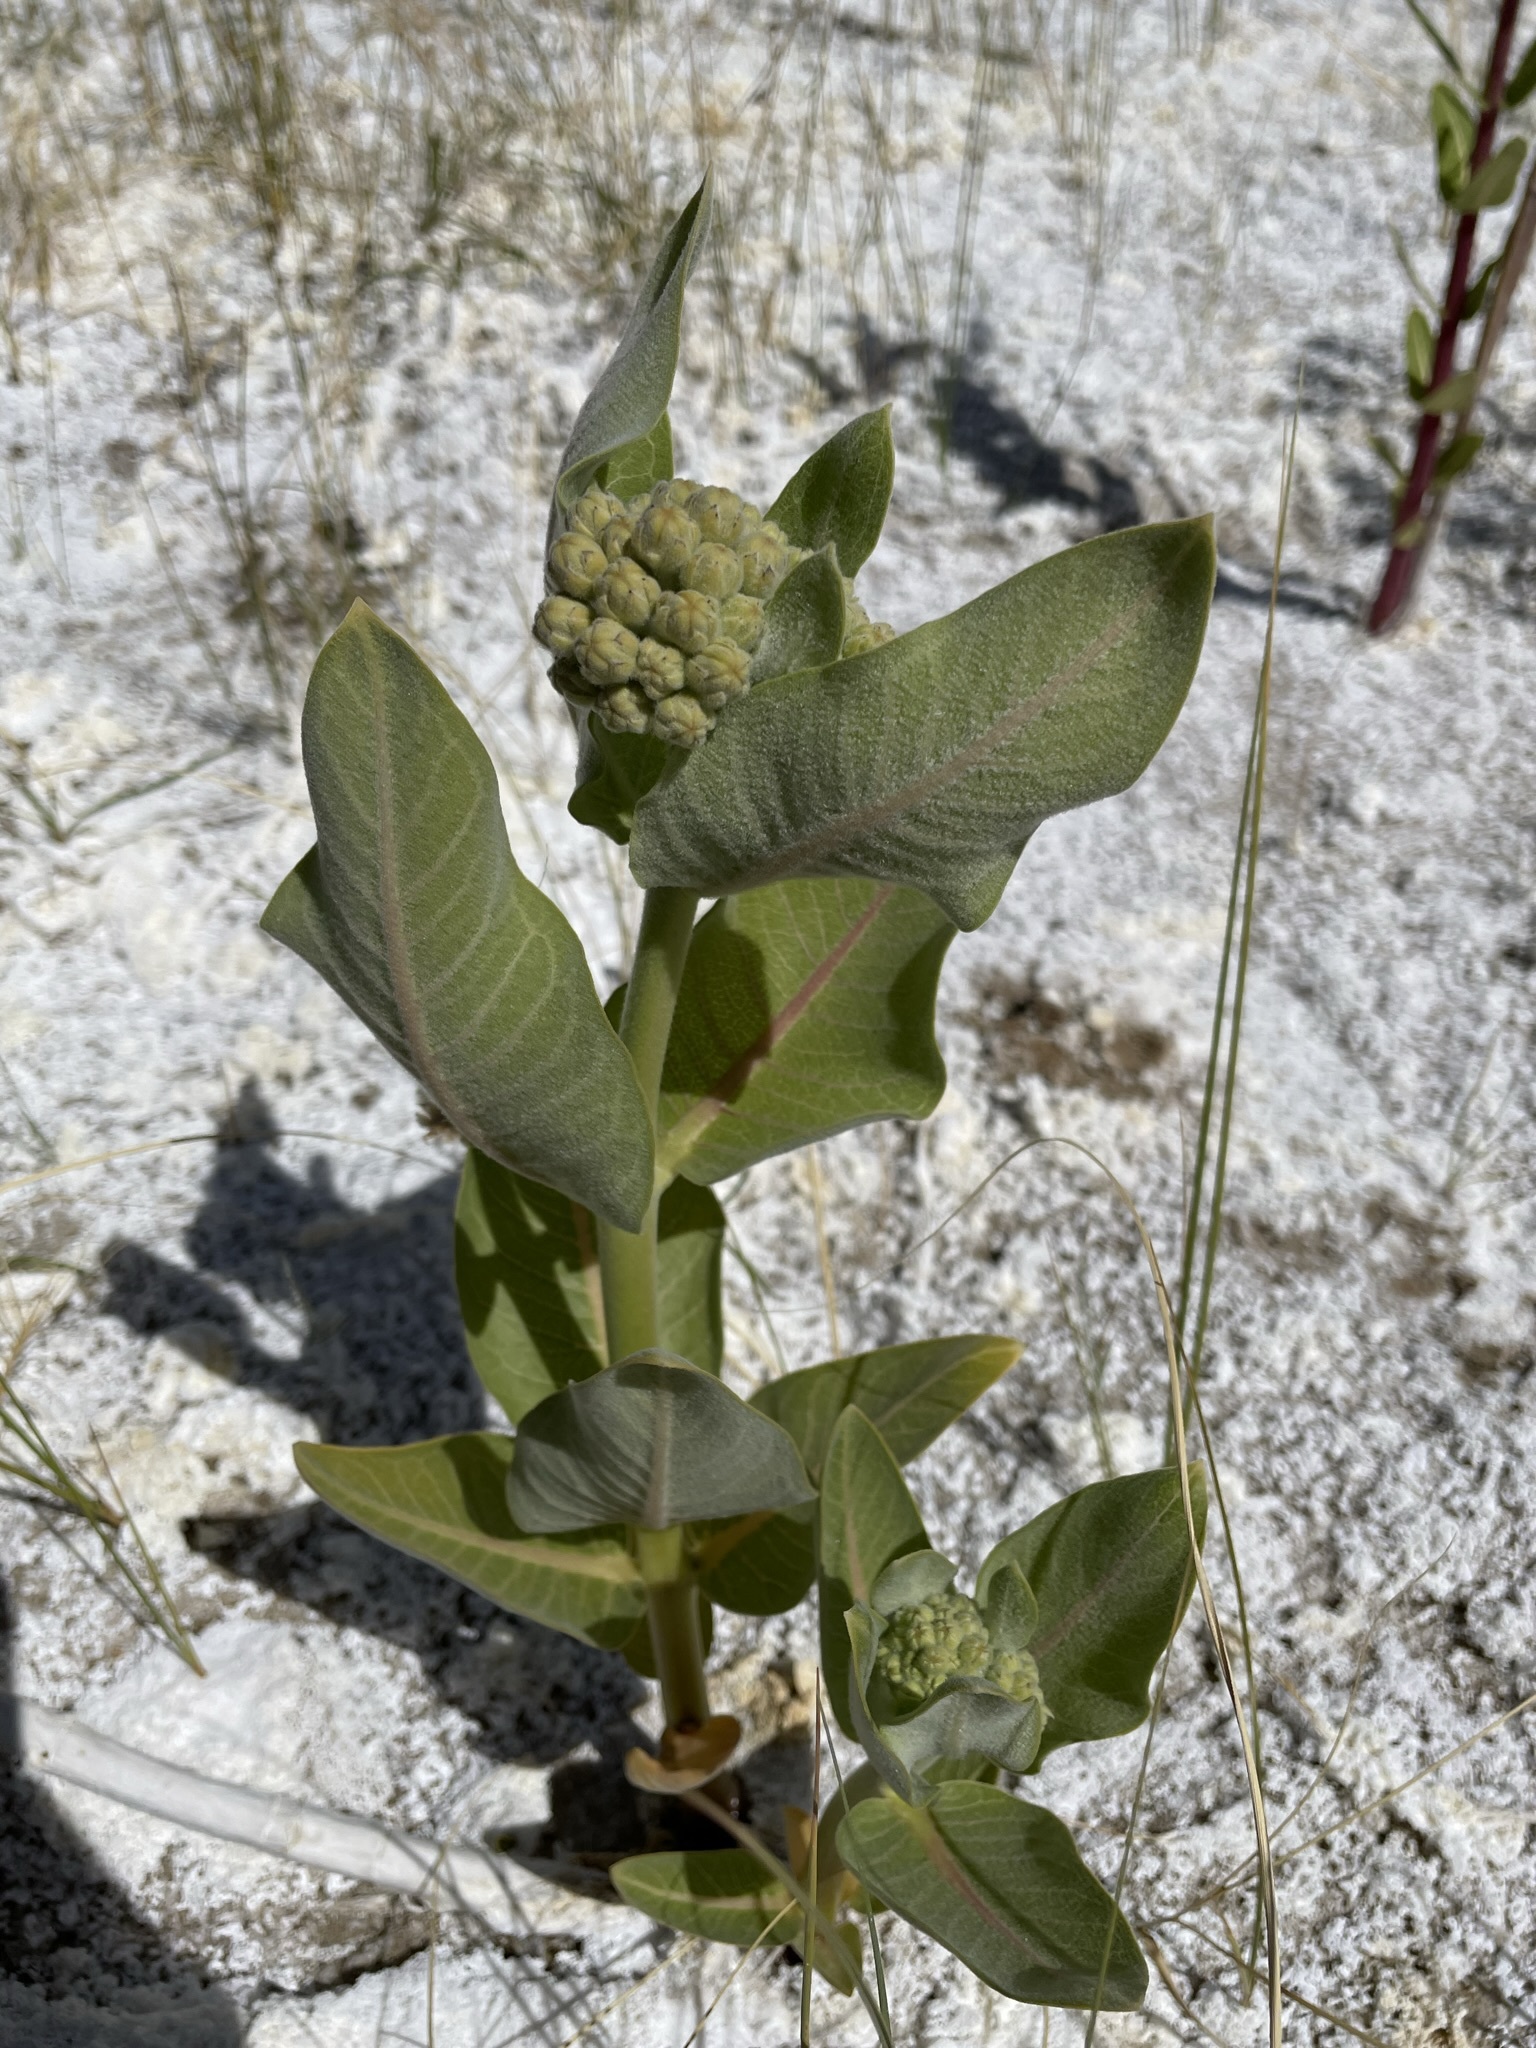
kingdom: Plantae
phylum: Tracheophyta
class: Magnoliopsida
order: Gentianales
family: Apocynaceae
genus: Asclepias
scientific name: Asclepias speciosa
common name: Showy milkweed
